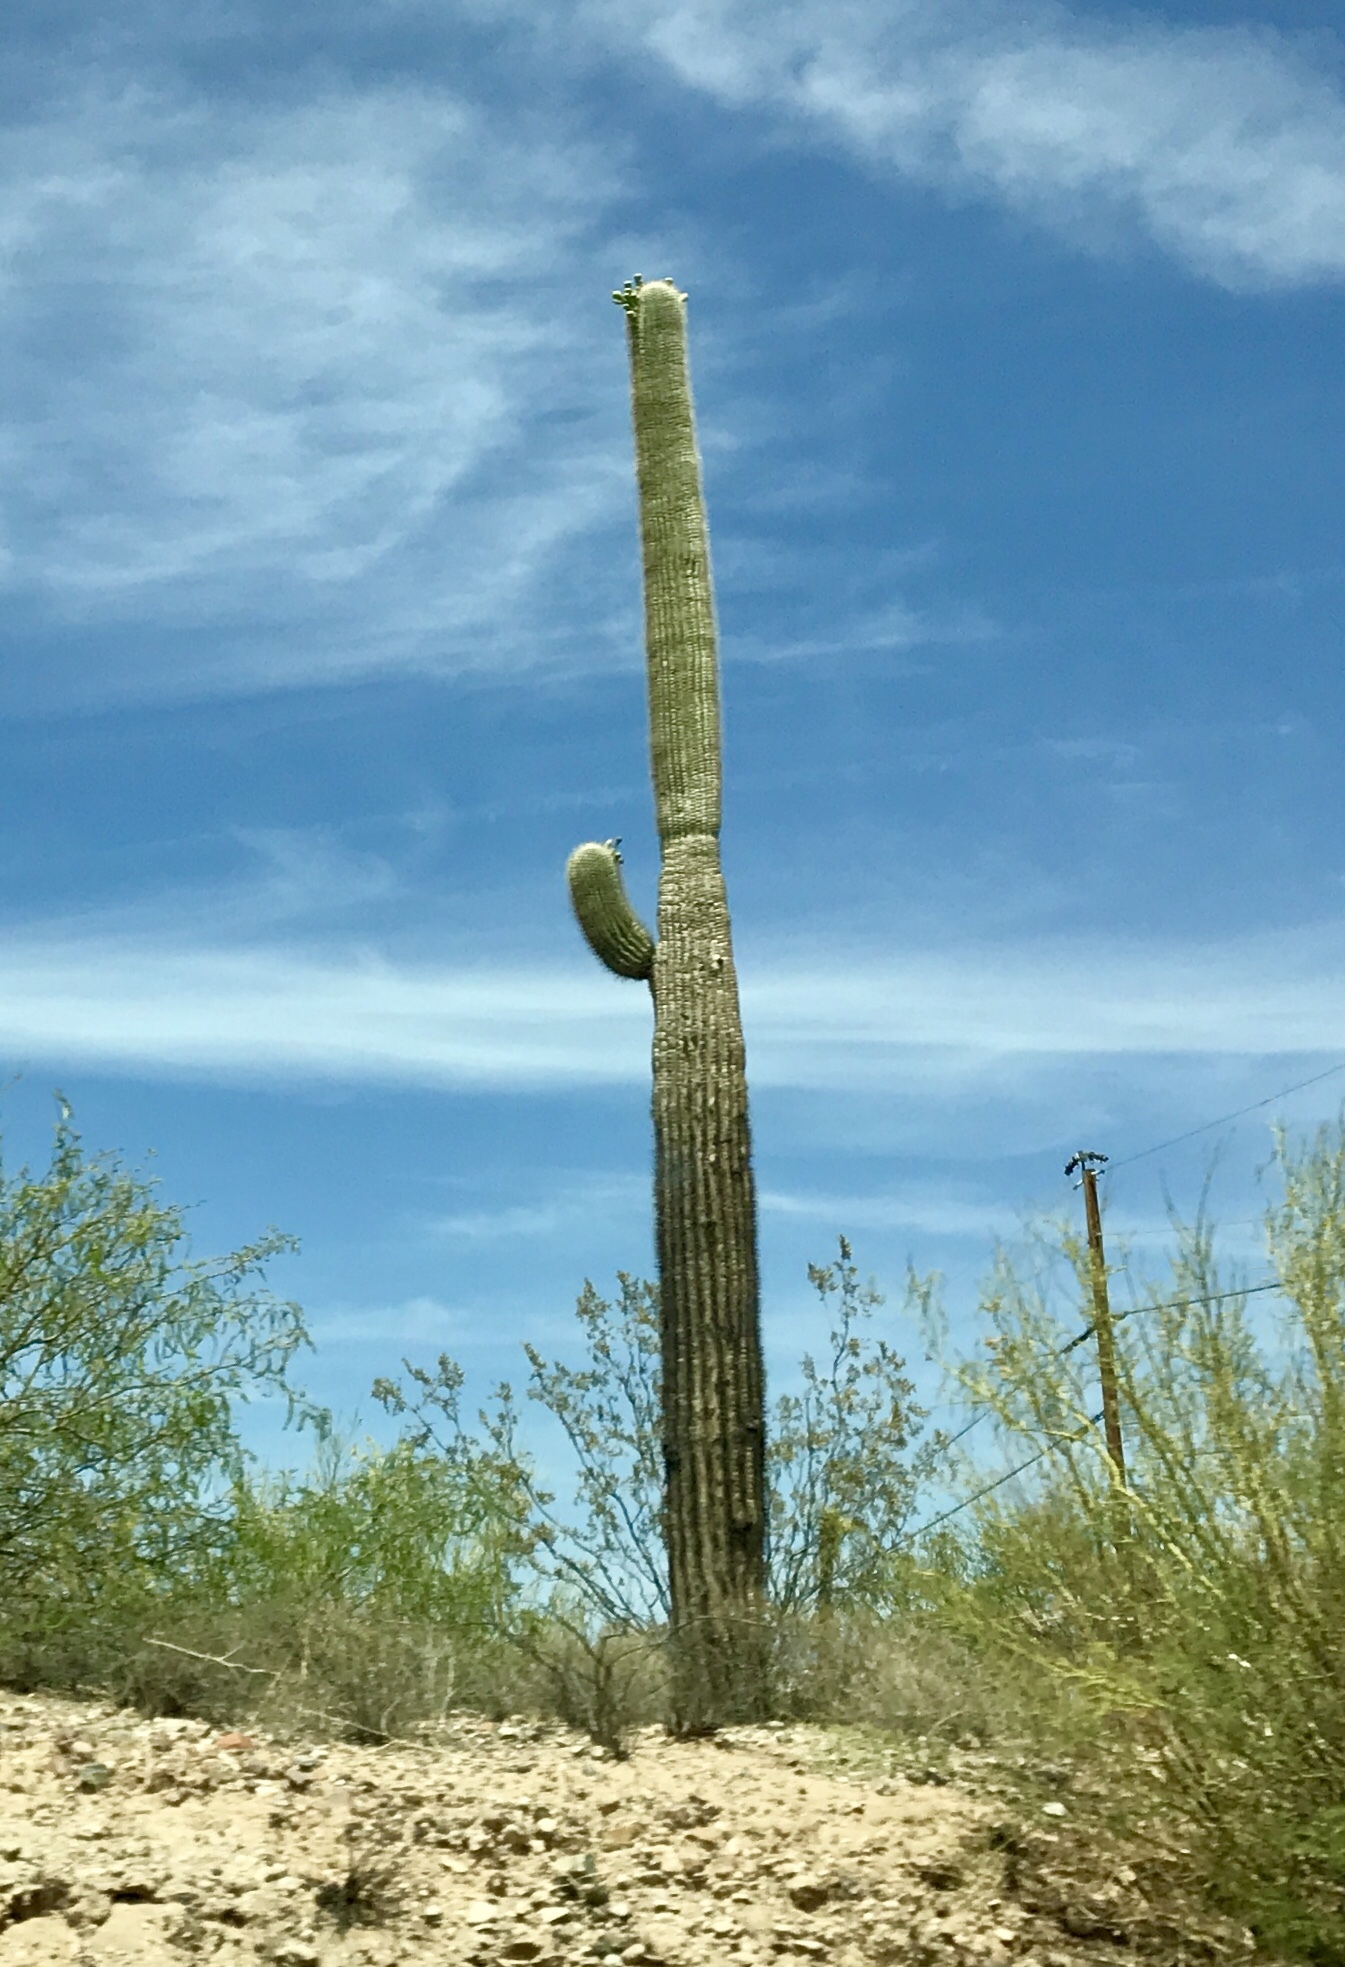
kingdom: Plantae
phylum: Tracheophyta
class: Magnoliopsida
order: Caryophyllales
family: Cactaceae
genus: Carnegiea
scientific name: Carnegiea gigantea
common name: Saguaro
